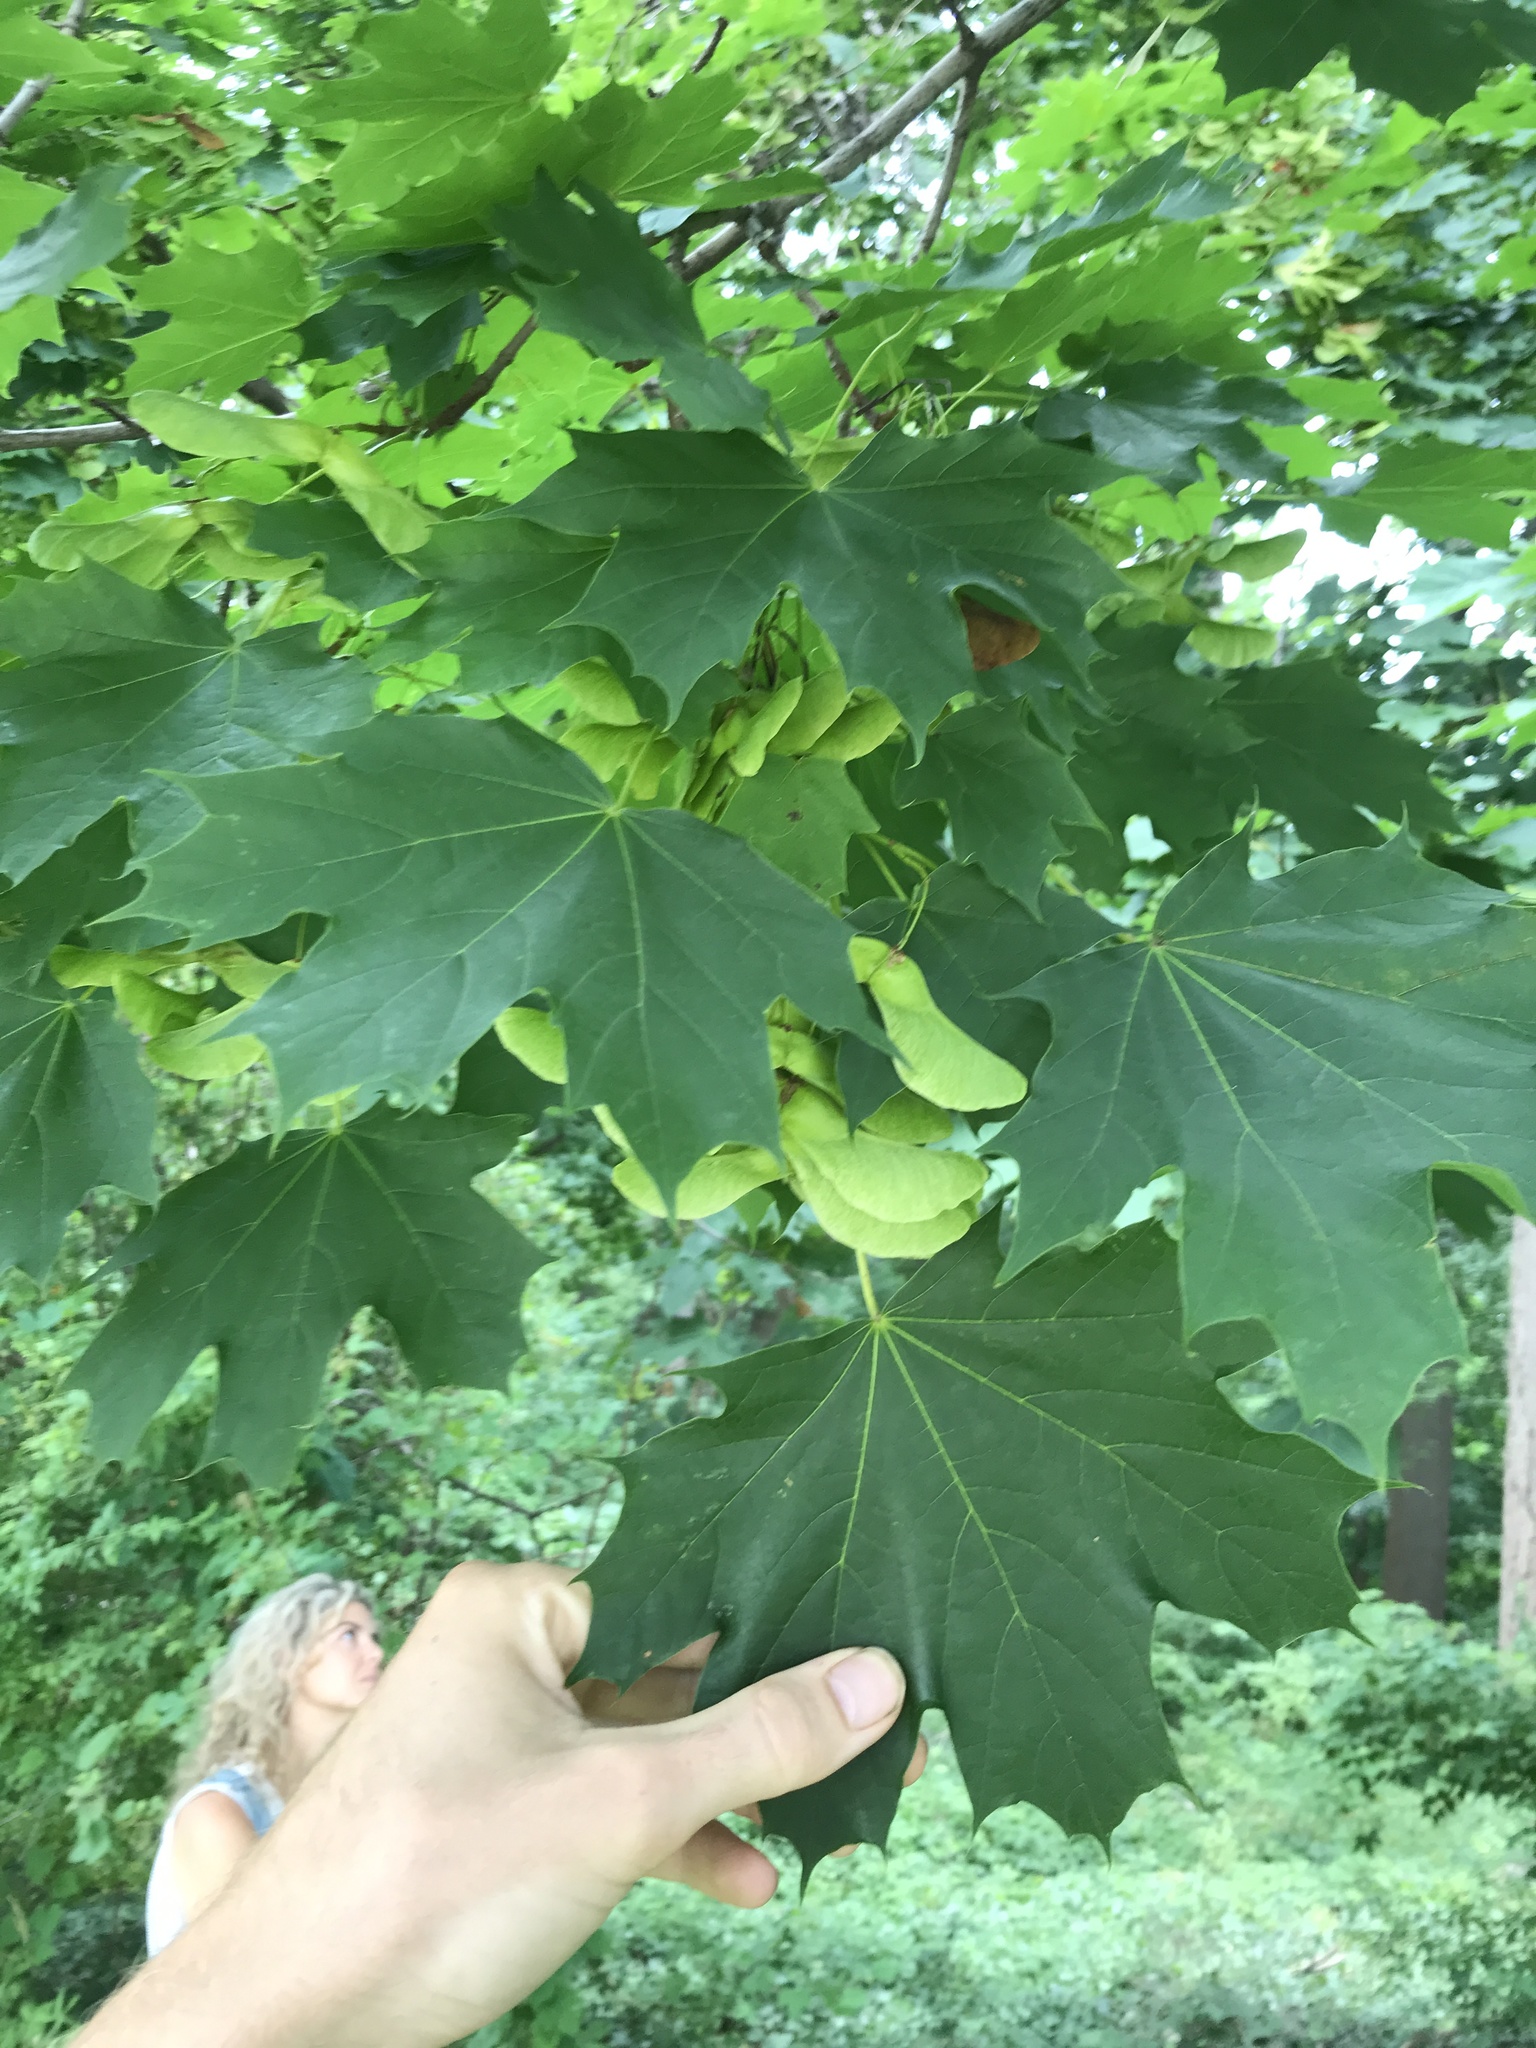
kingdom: Plantae
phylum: Tracheophyta
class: Magnoliopsida
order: Sapindales
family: Sapindaceae
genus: Acer
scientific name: Acer platanoides
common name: Norway maple
